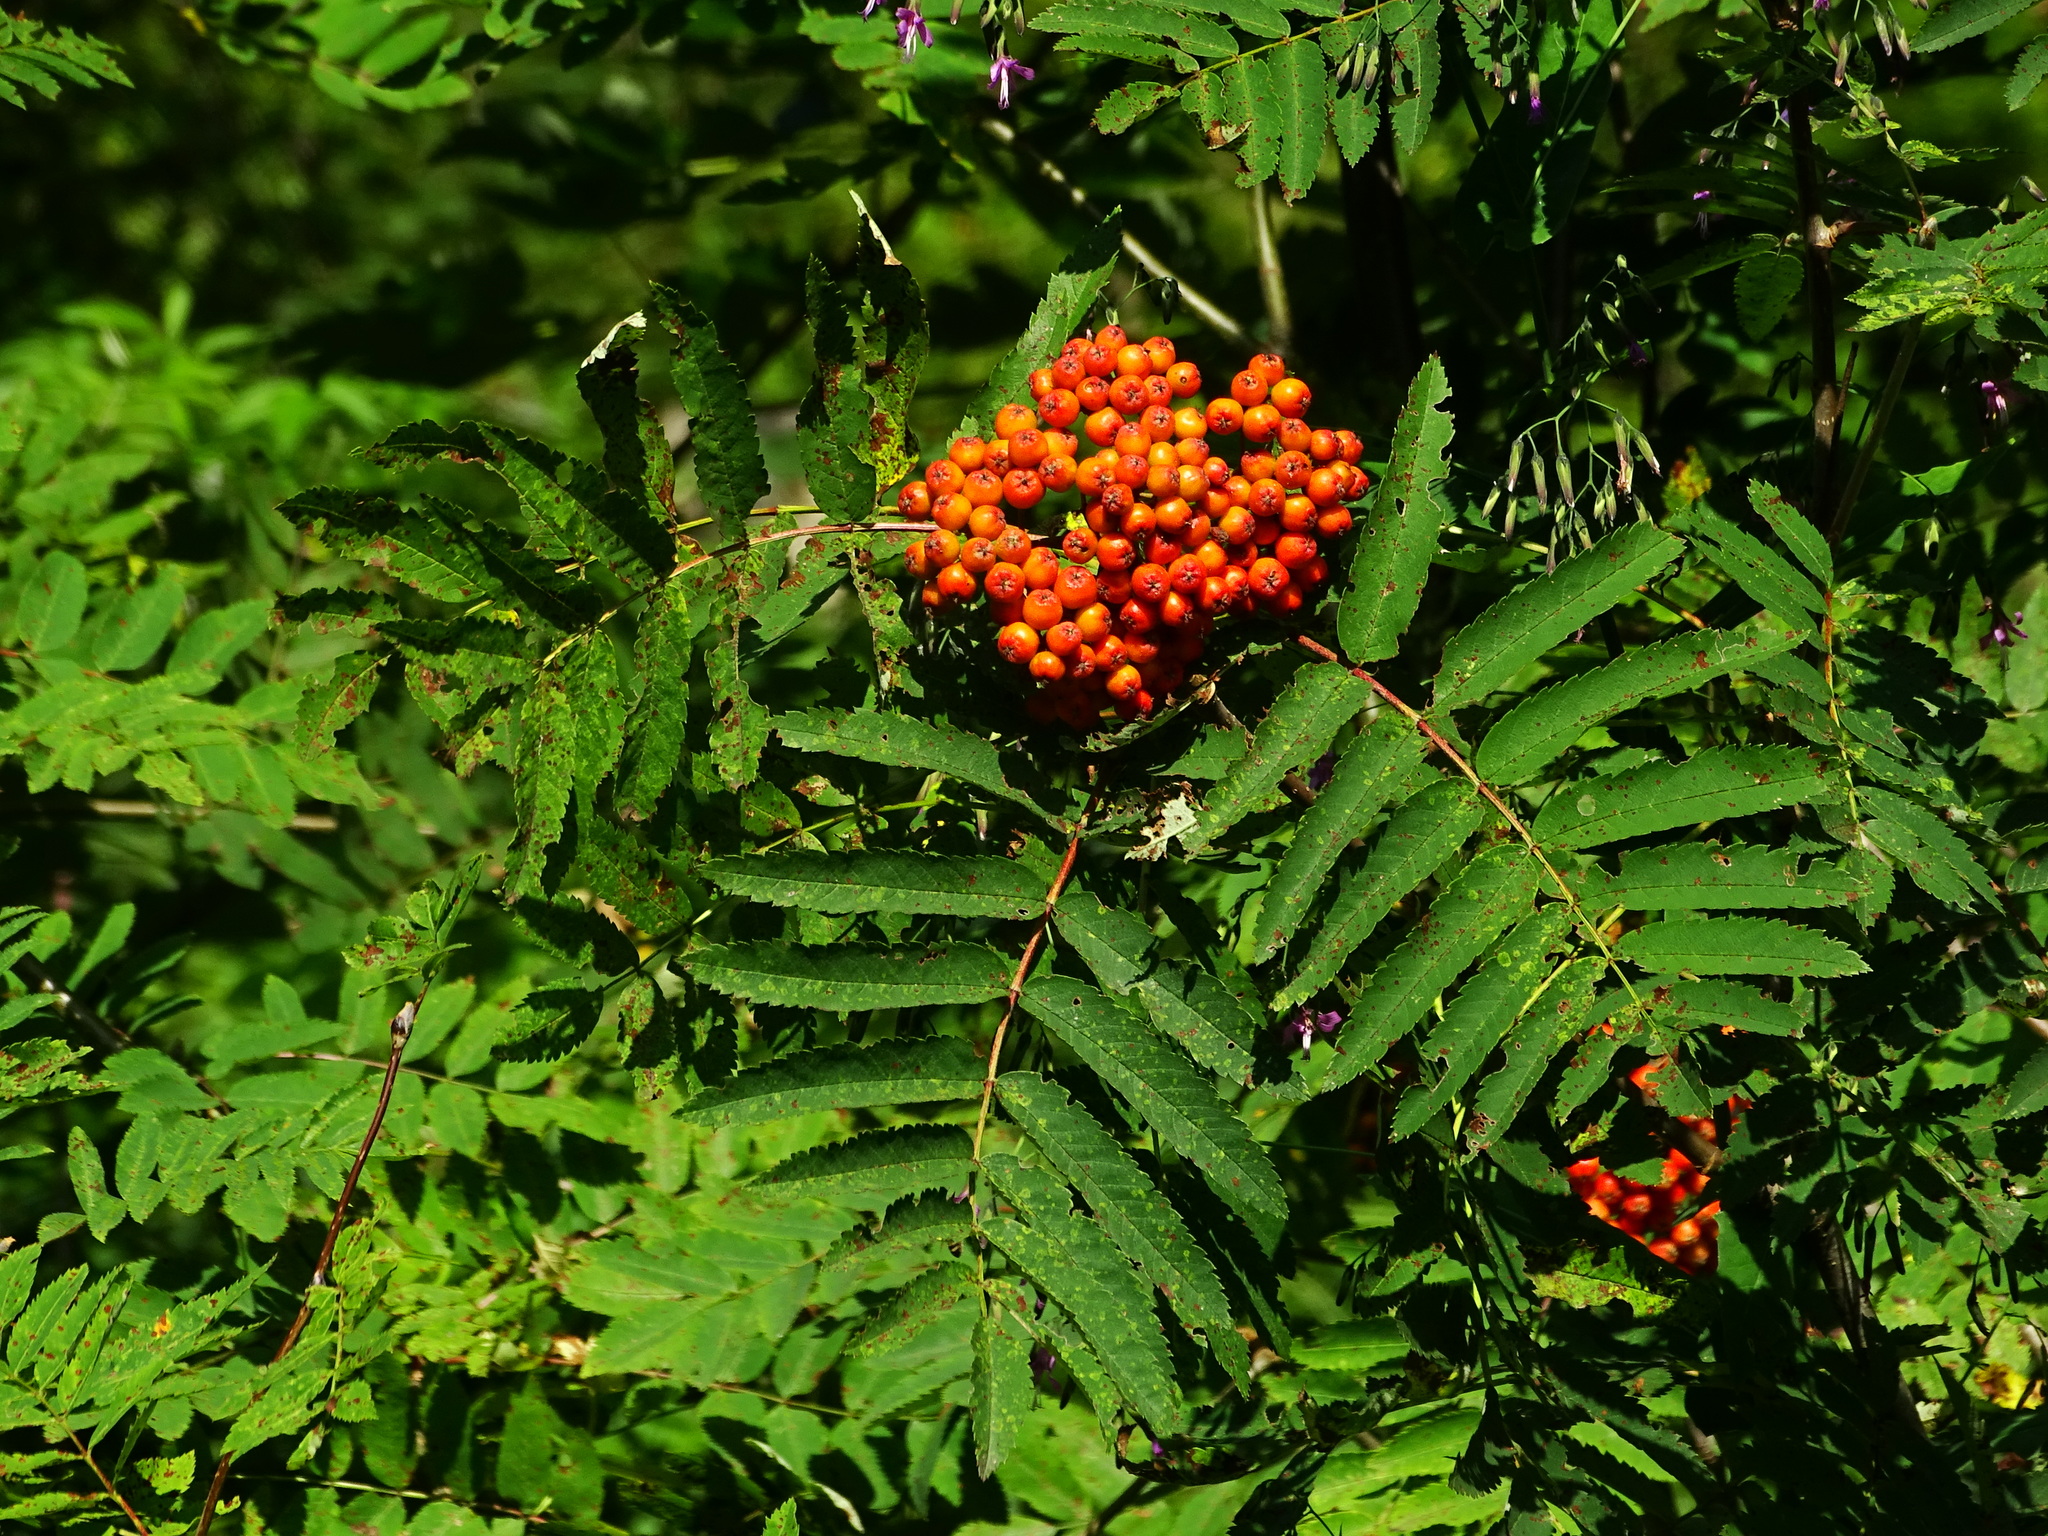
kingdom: Plantae
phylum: Tracheophyta
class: Magnoliopsida
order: Rosales
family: Rosaceae
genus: Sorbus
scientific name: Sorbus aucuparia
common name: Rowan
